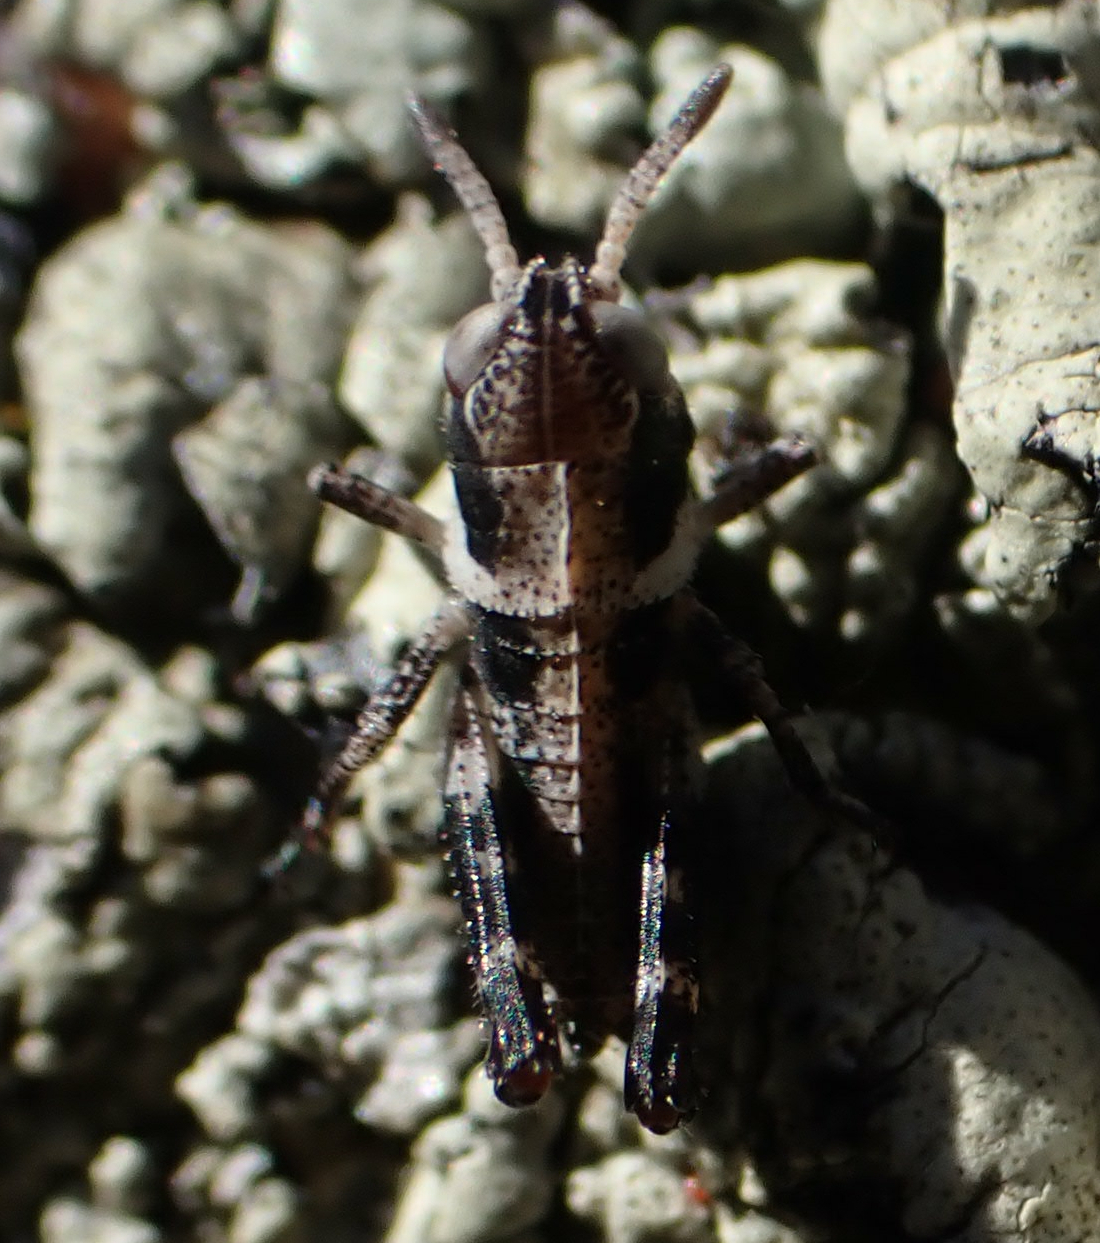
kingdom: Animalia
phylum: Arthropoda
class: Insecta
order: Orthoptera
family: Acrididae
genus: Camnula
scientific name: Camnula pellucida
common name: Clear-winged grasshopper
